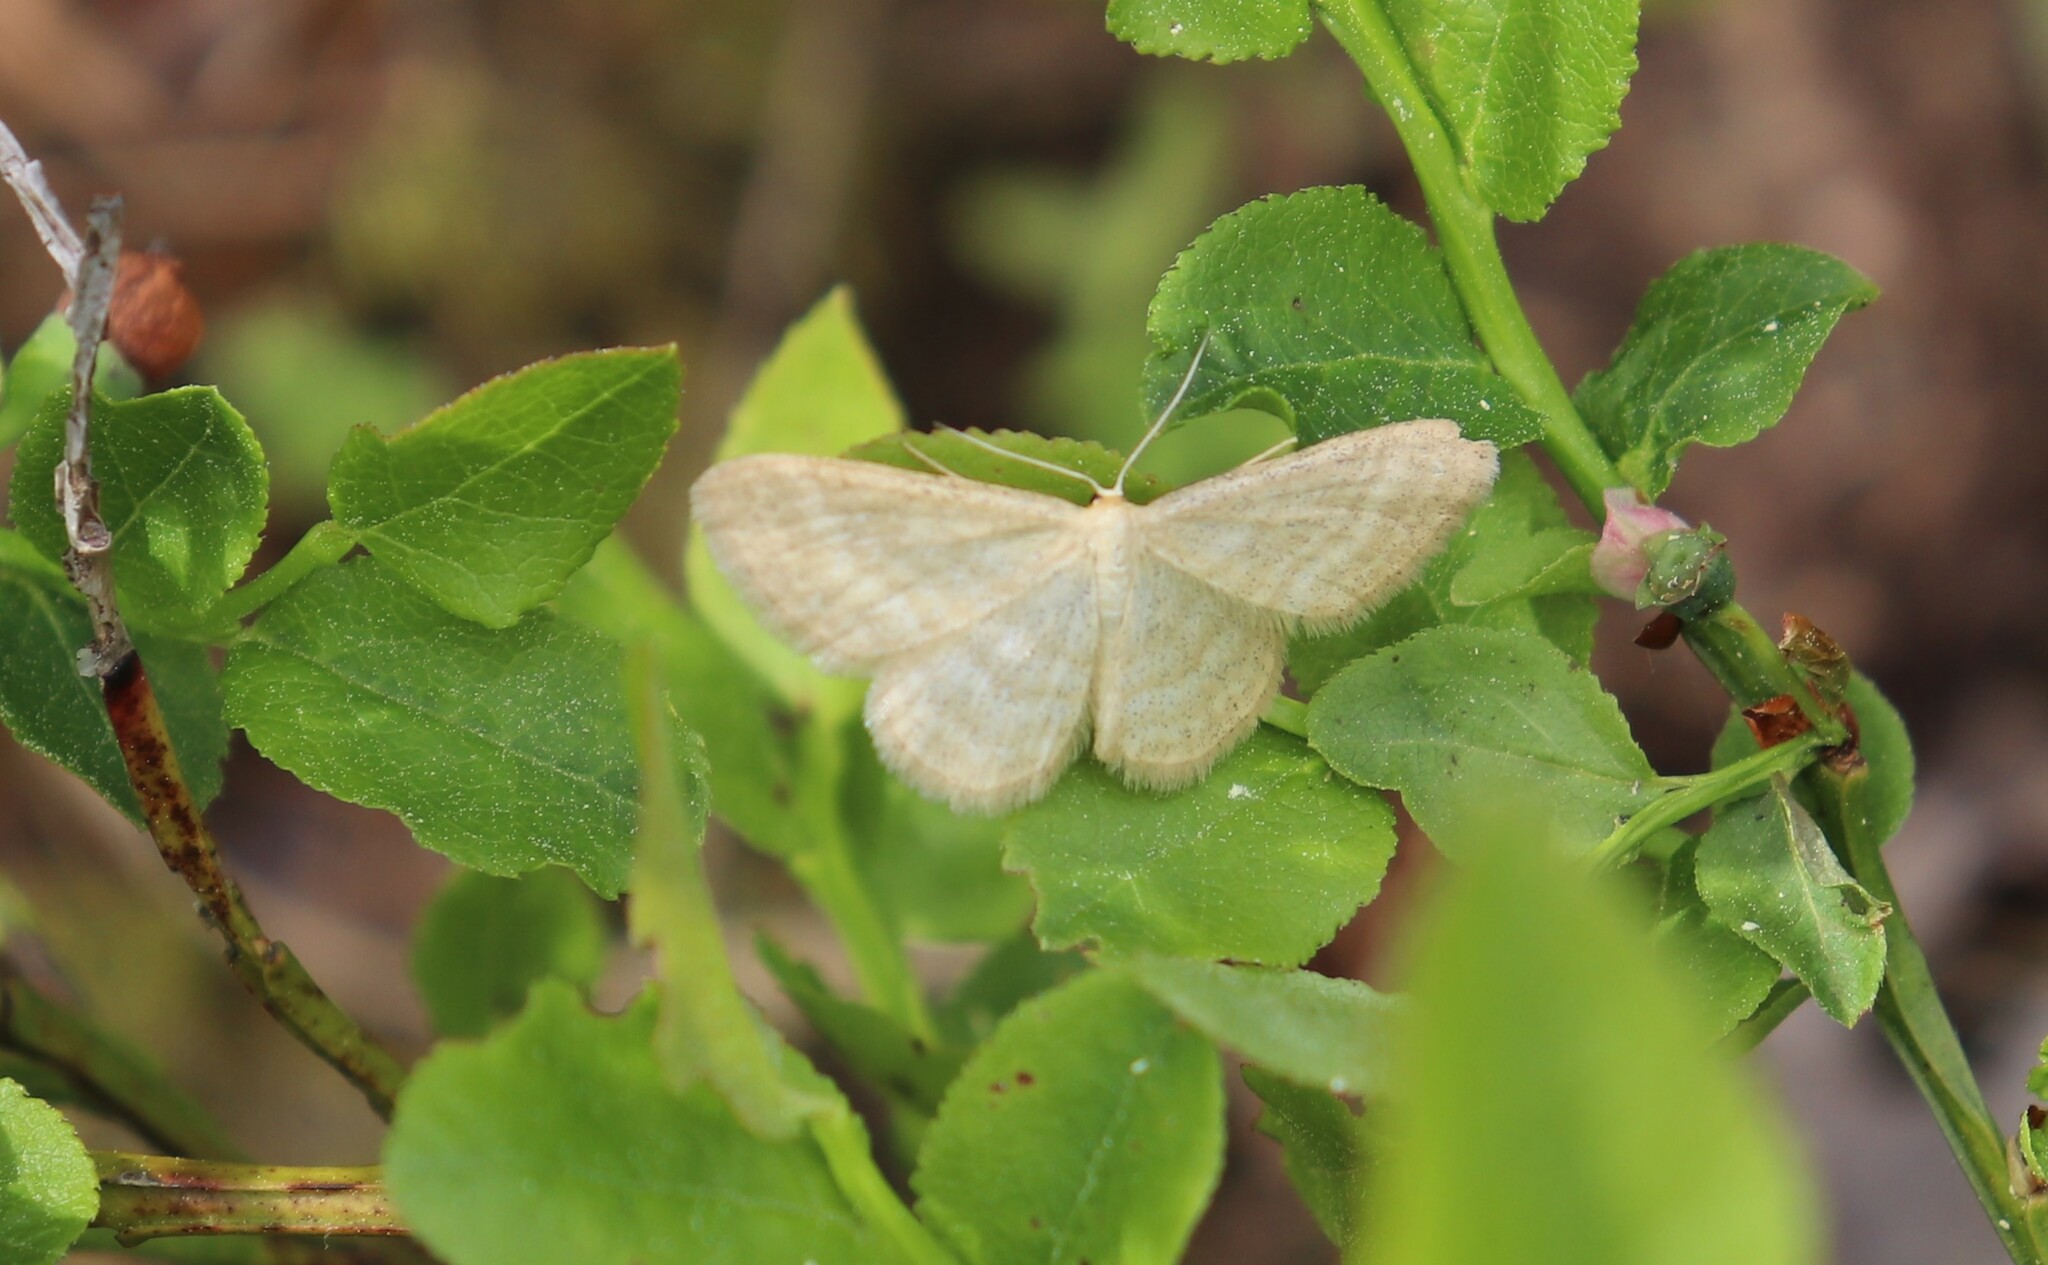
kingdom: Animalia
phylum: Arthropoda
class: Insecta
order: Lepidoptera
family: Geometridae
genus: Idaea
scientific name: Idaea pallidata
